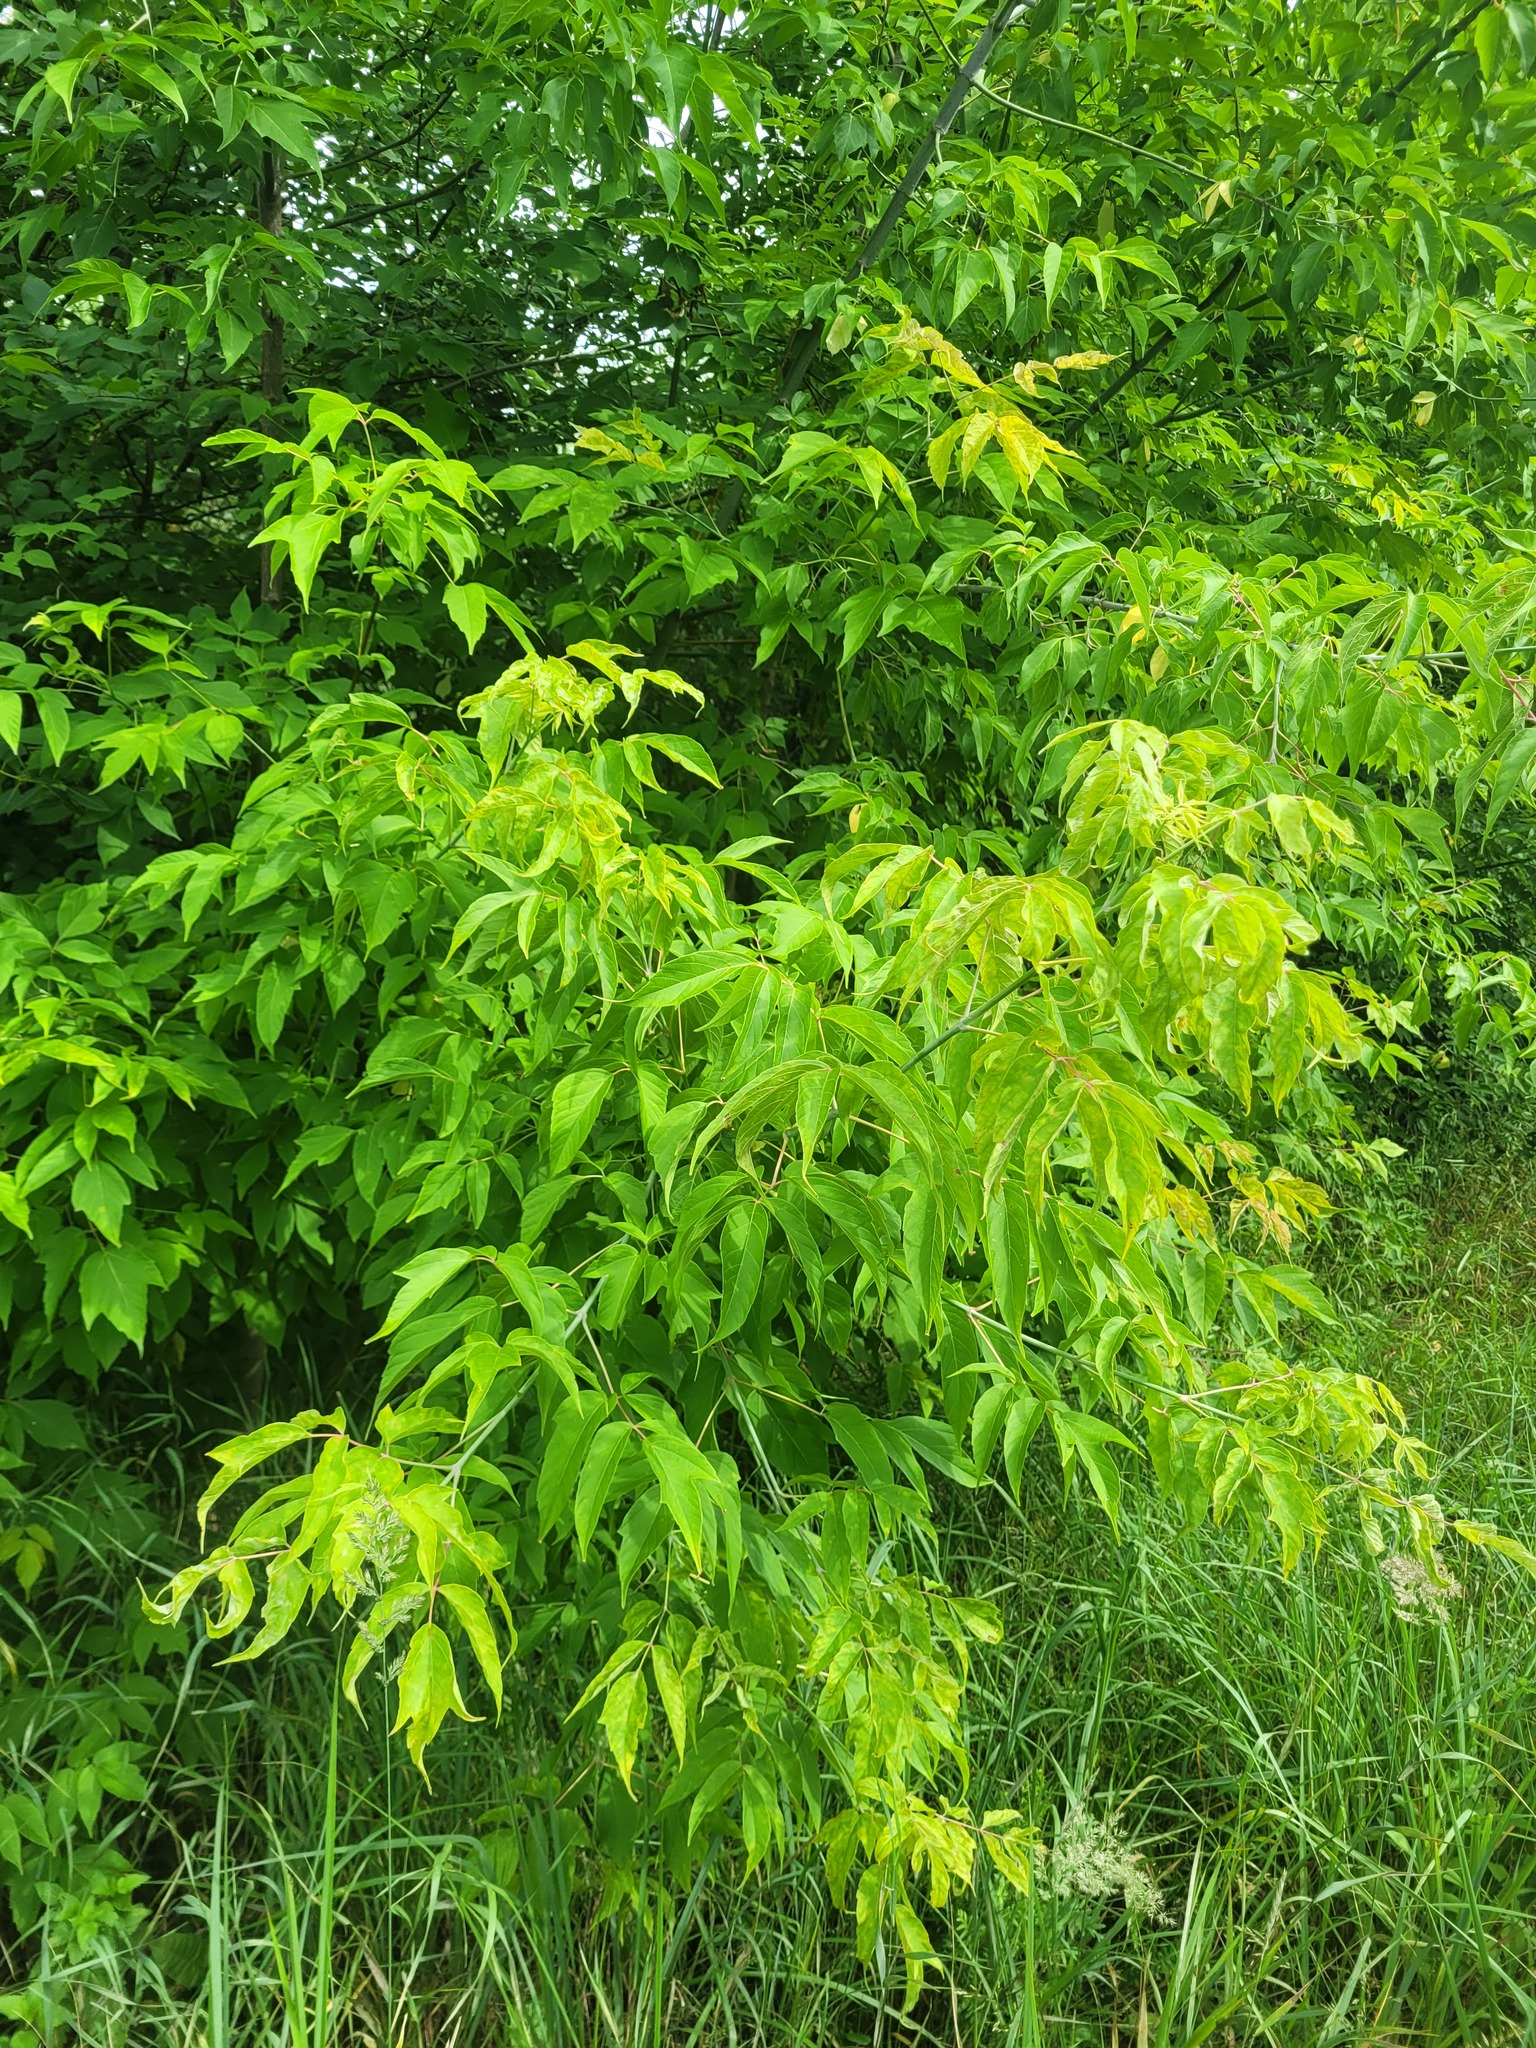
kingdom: Plantae
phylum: Tracheophyta
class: Magnoliopsida
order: Sapindales
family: Sapindaceae
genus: Acer
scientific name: Acer negundo
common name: Ashleaf maple
